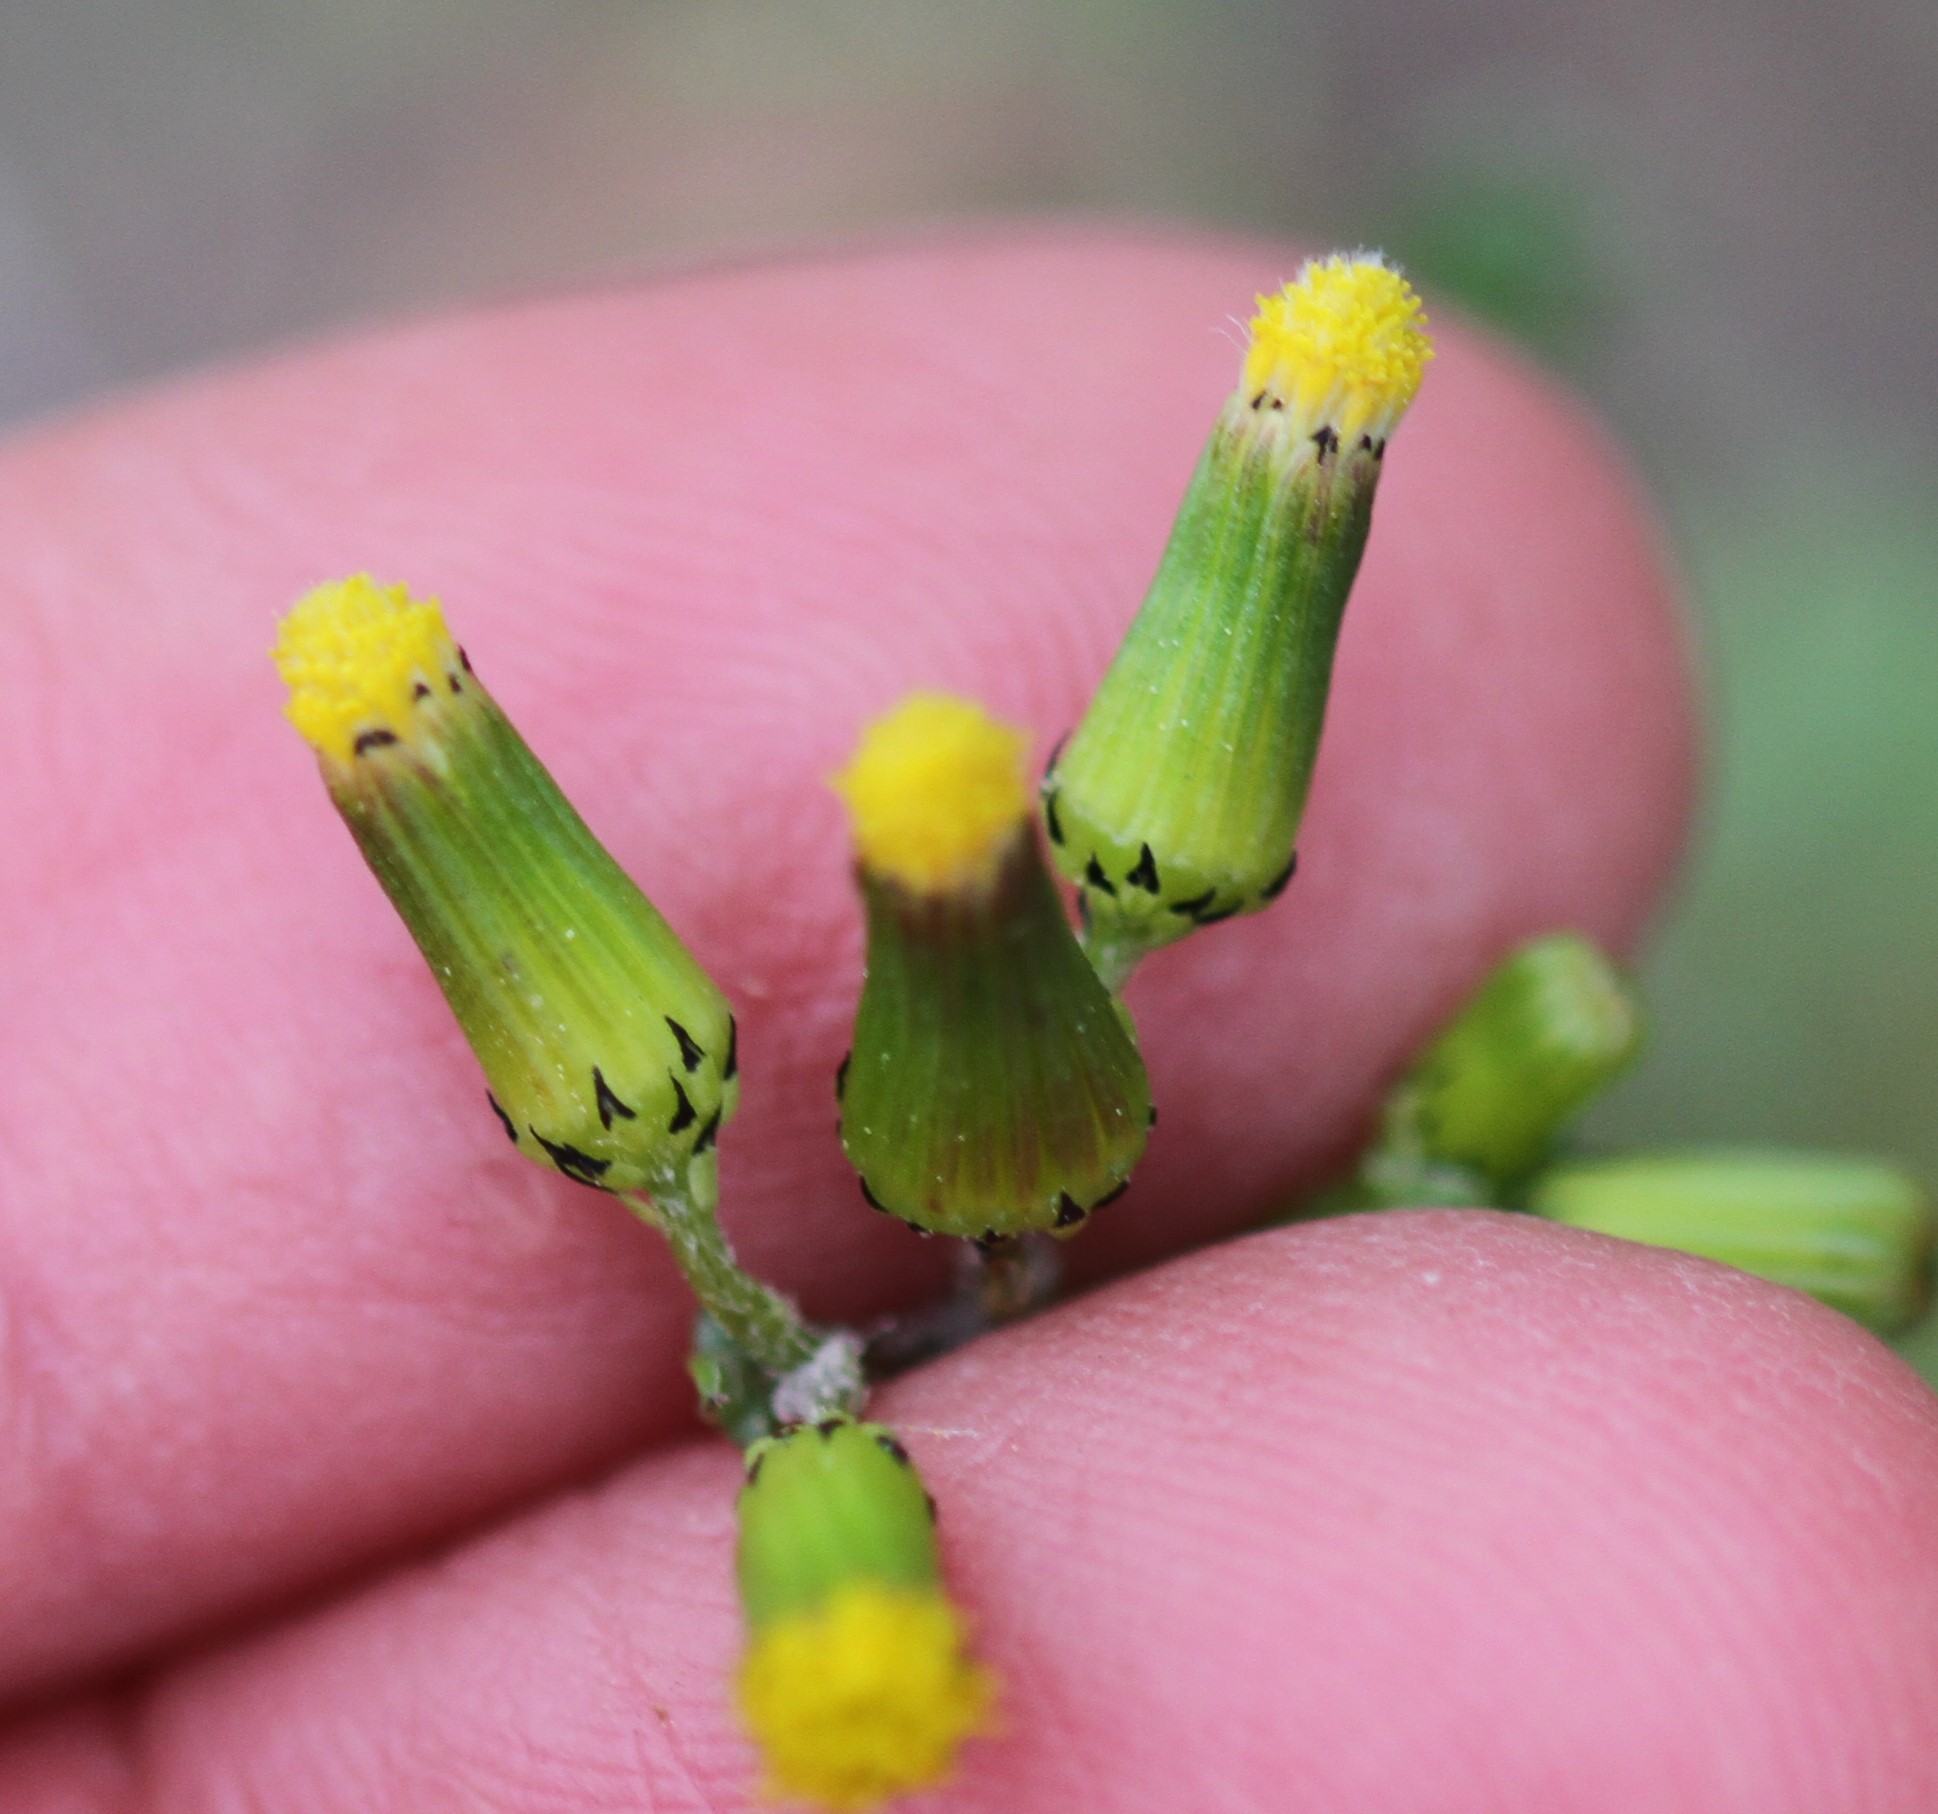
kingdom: Plantae
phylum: Tracheophyta
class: Magnoliopsida
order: Asterales
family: Asteraceae
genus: Senecio
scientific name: Senecio vulgaris
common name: Old-man-in-the-spring
